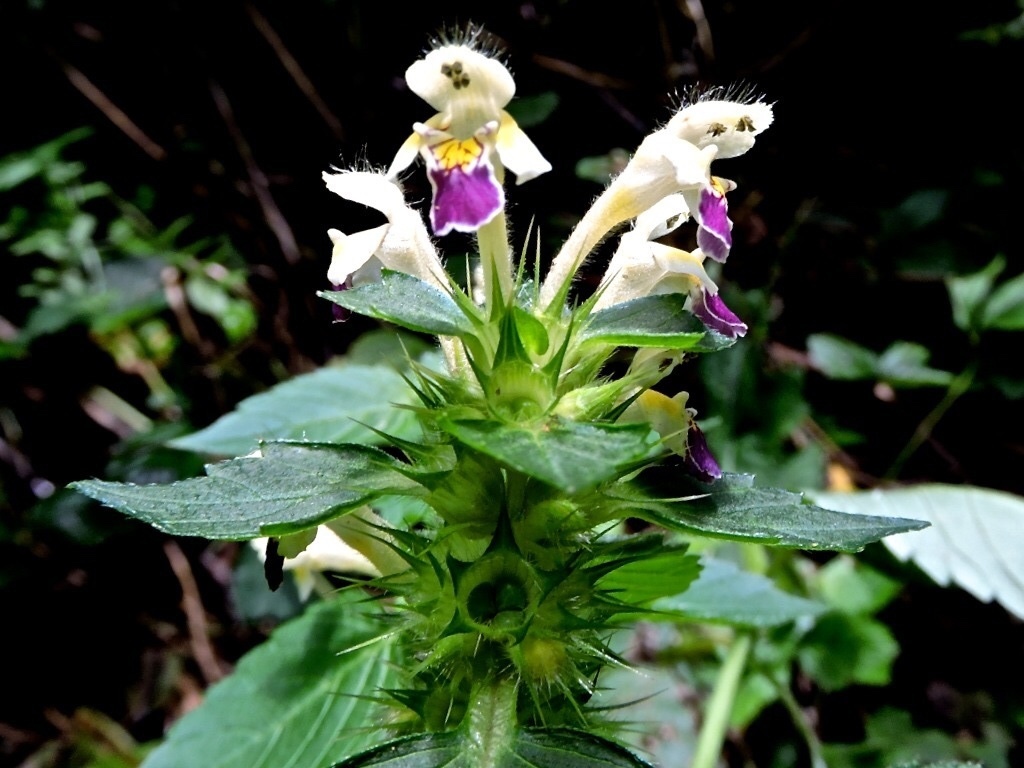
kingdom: Plantae
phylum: Tracheophyta
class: Magnoliopsida
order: Lamiales
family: Lamiaceae
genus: Galeopsis
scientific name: Galeopsis speciosa
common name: Large-flowered hemp-nettle
